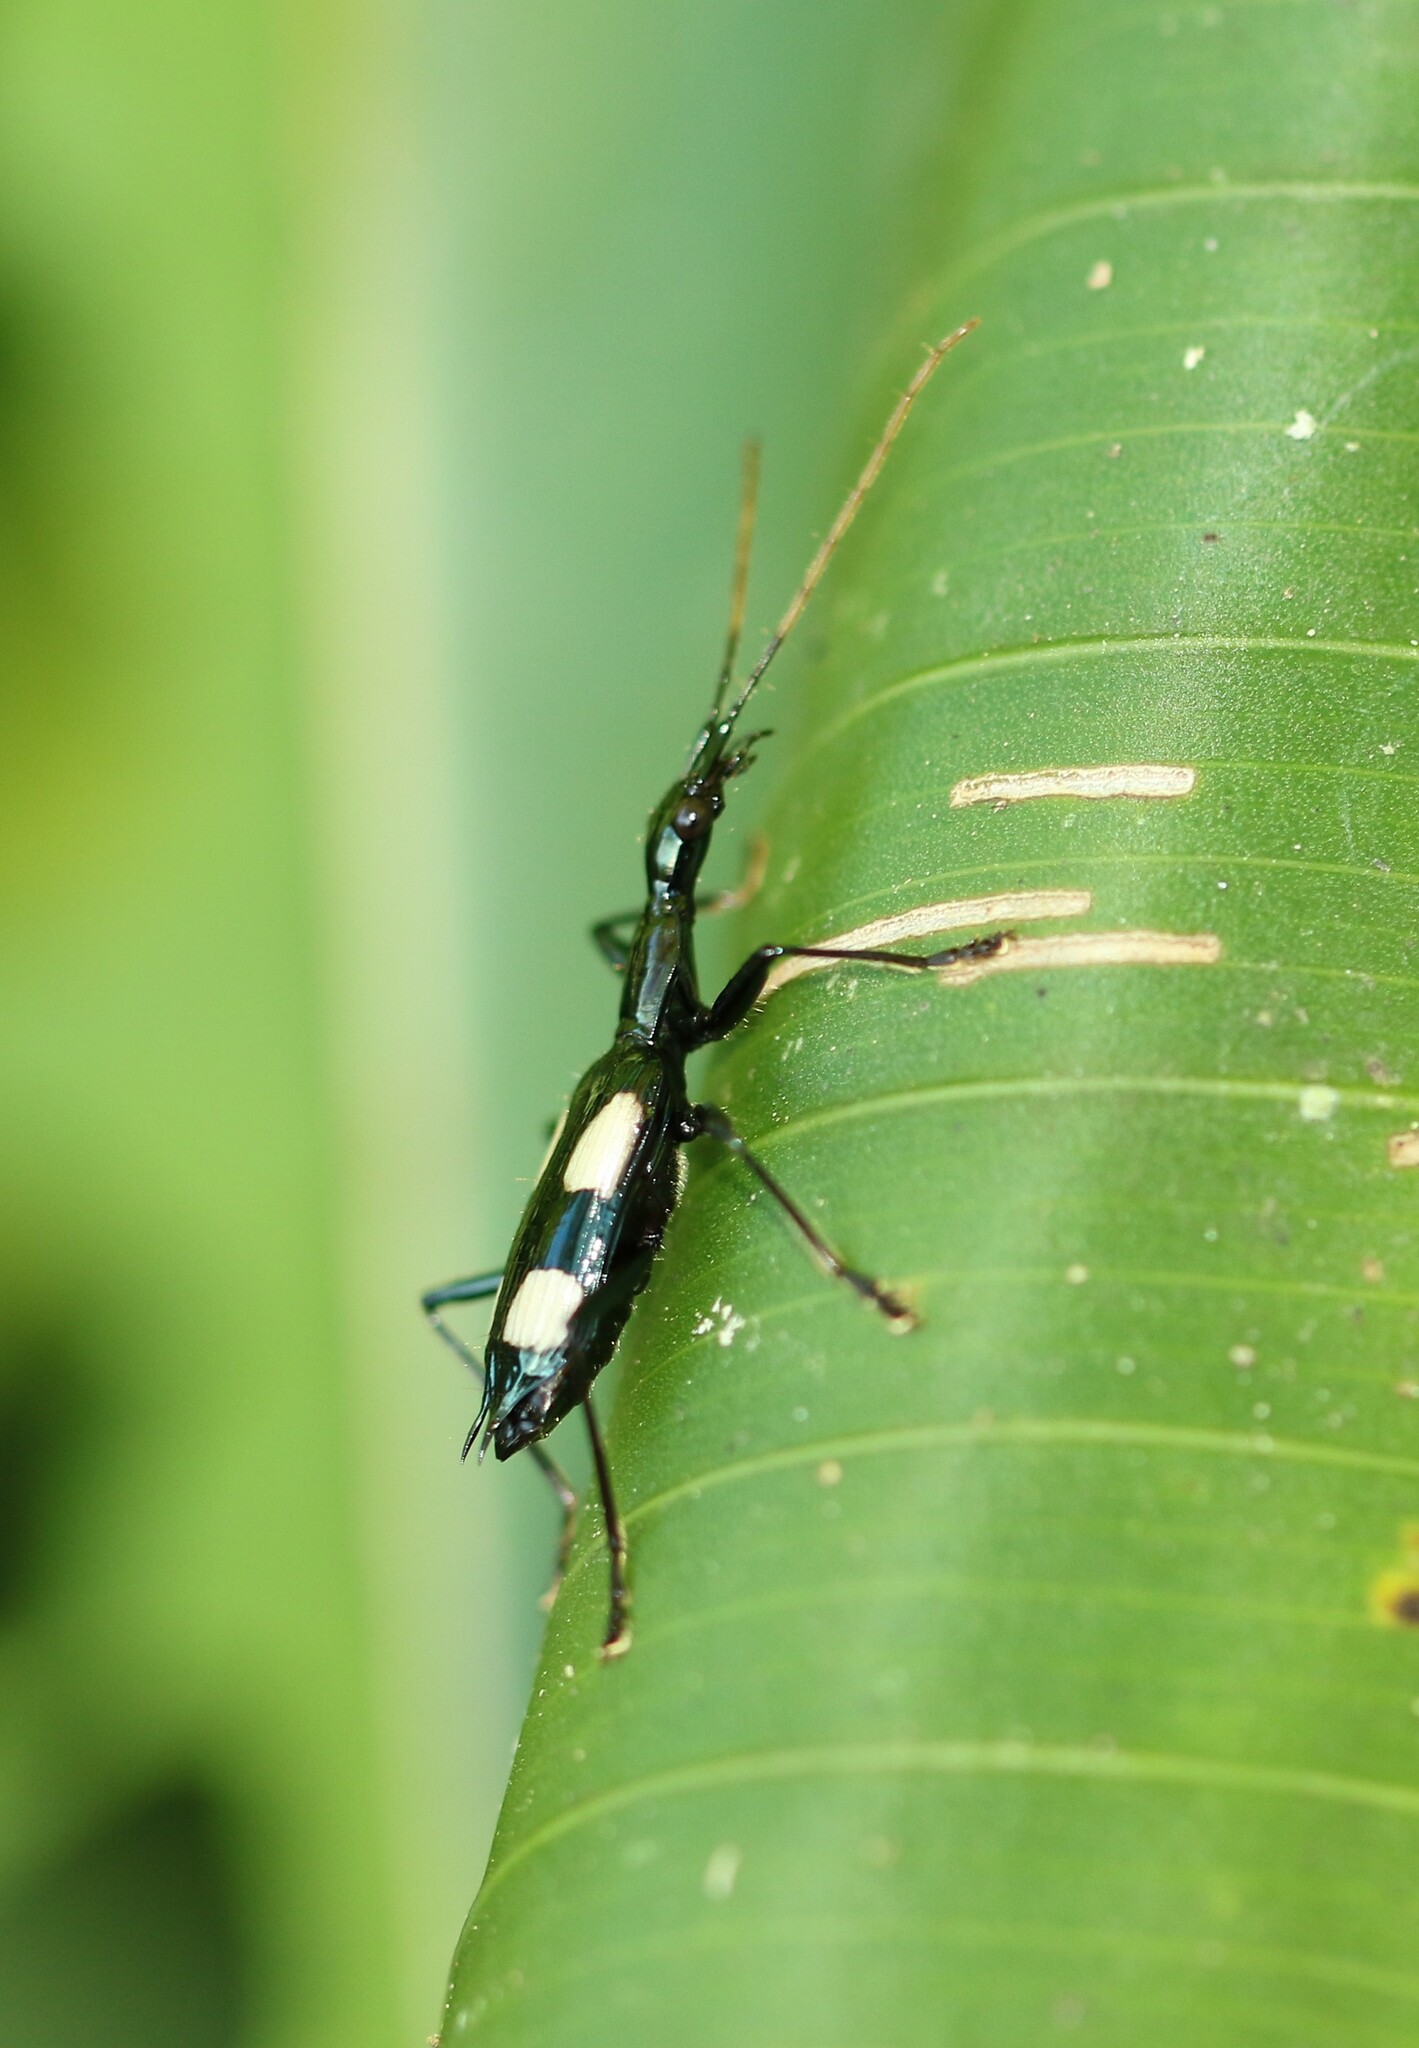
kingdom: Animalia
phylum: Arthropoda
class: Insecta
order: Coleoptera
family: Carabidae
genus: Calophaena
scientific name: Calophaena laevigata
